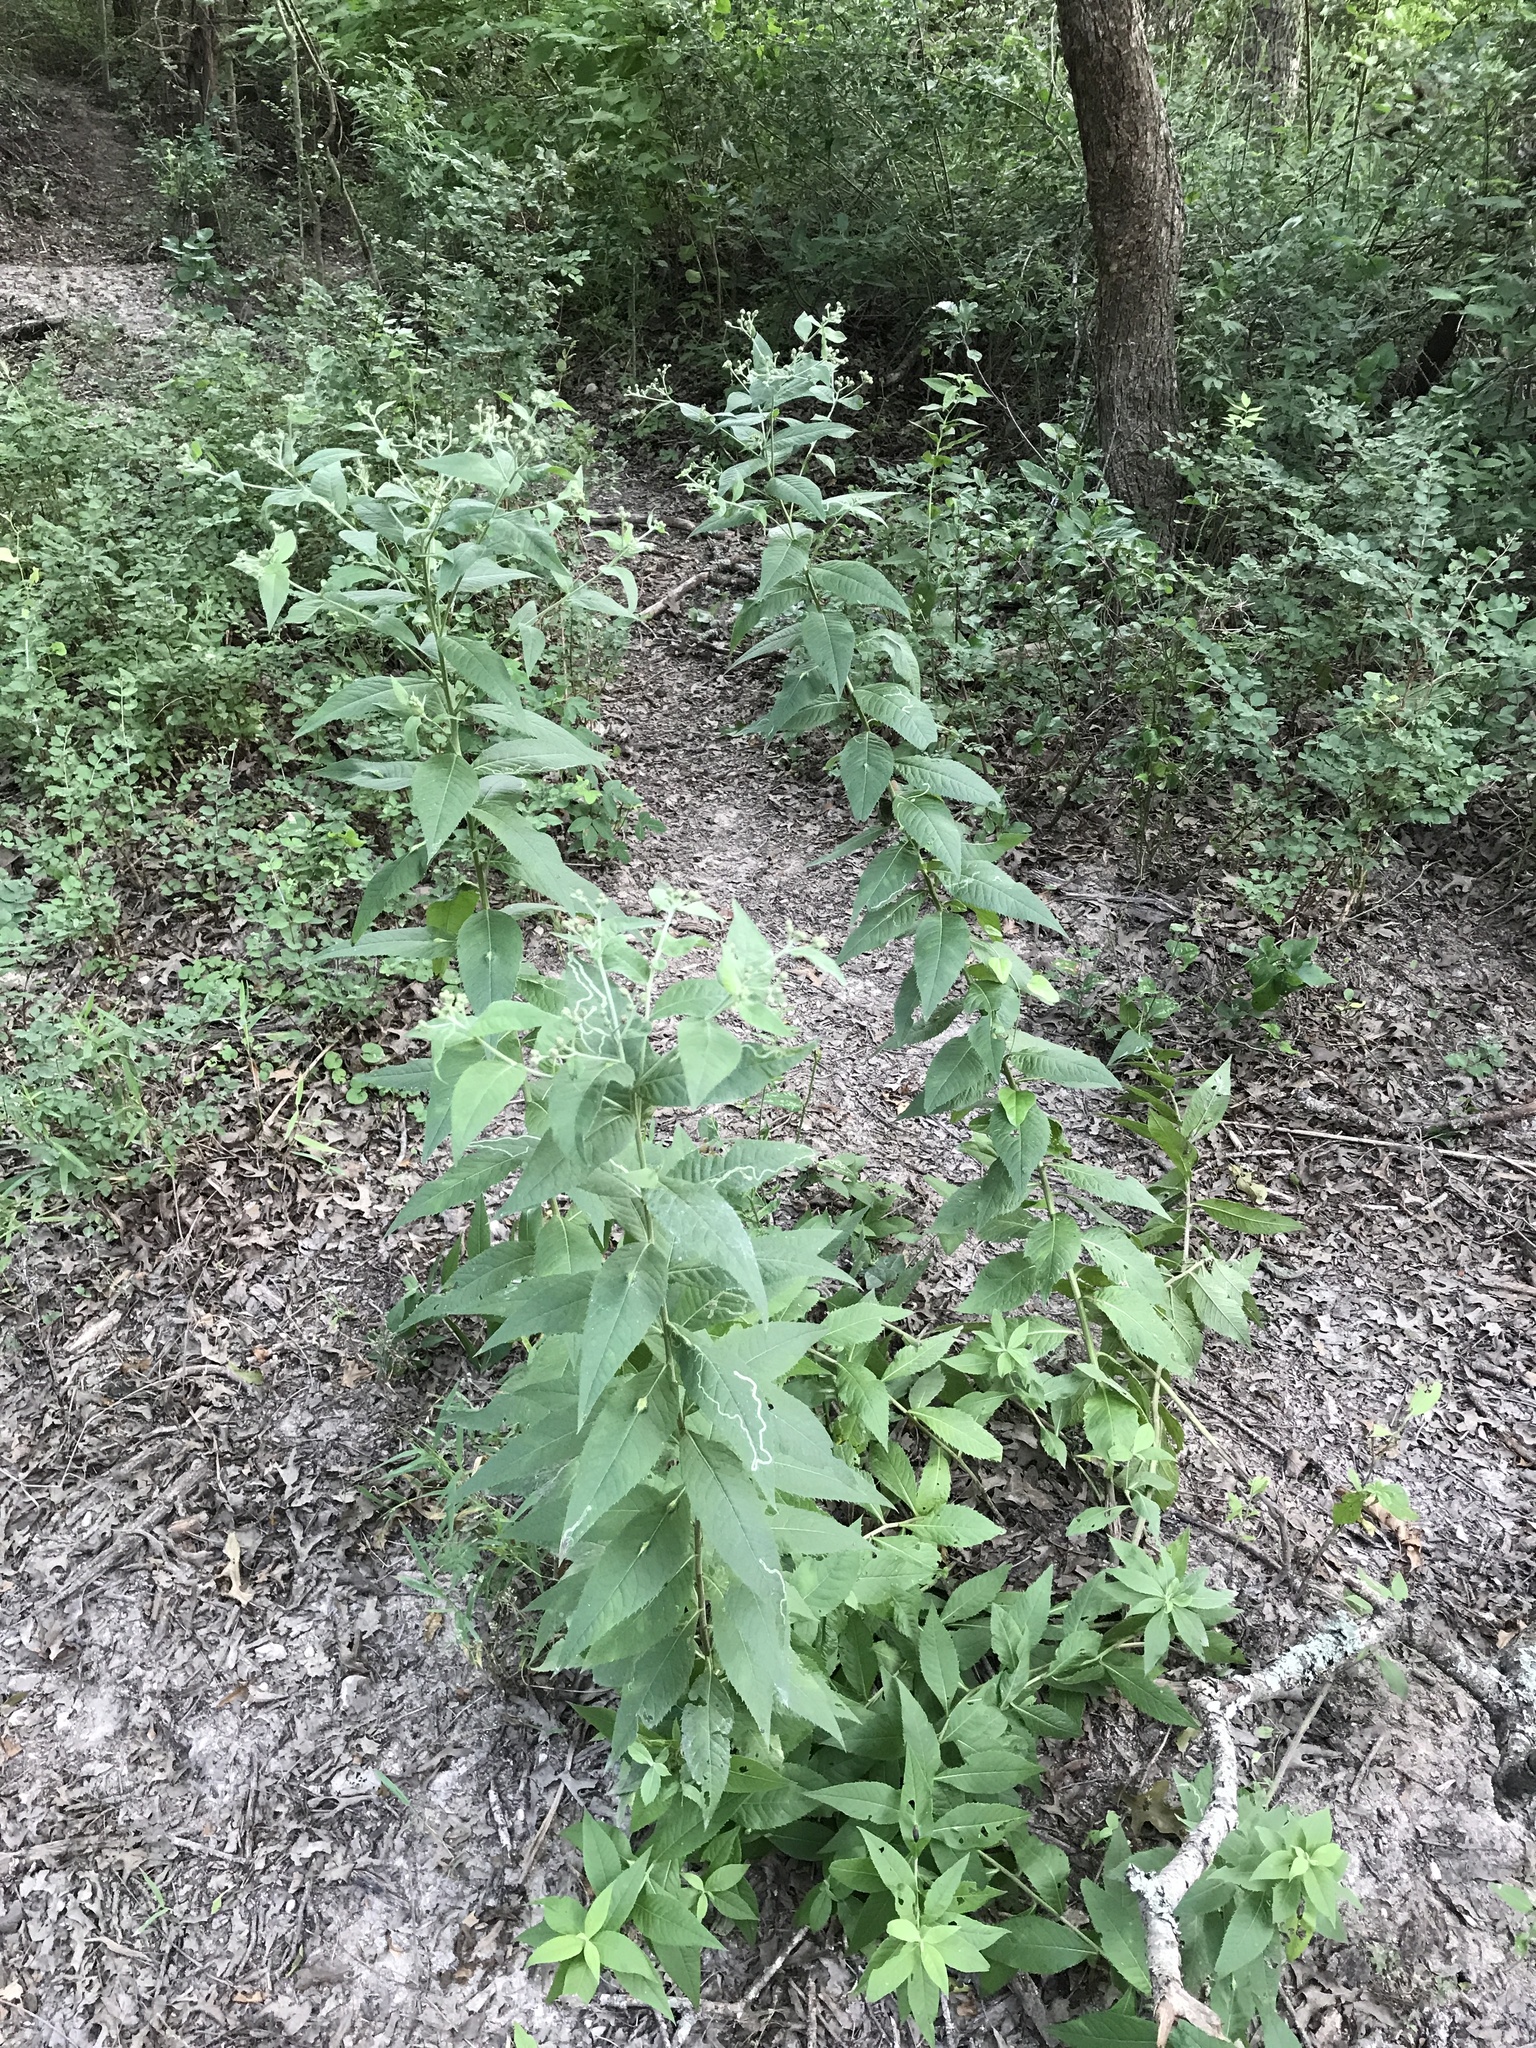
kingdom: Plantae
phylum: Tracheophyta
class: Magnoliopsida
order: Asterales
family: Asteraceae
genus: Vernonia
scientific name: Vernonia baldwinii
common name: Western ironweed
